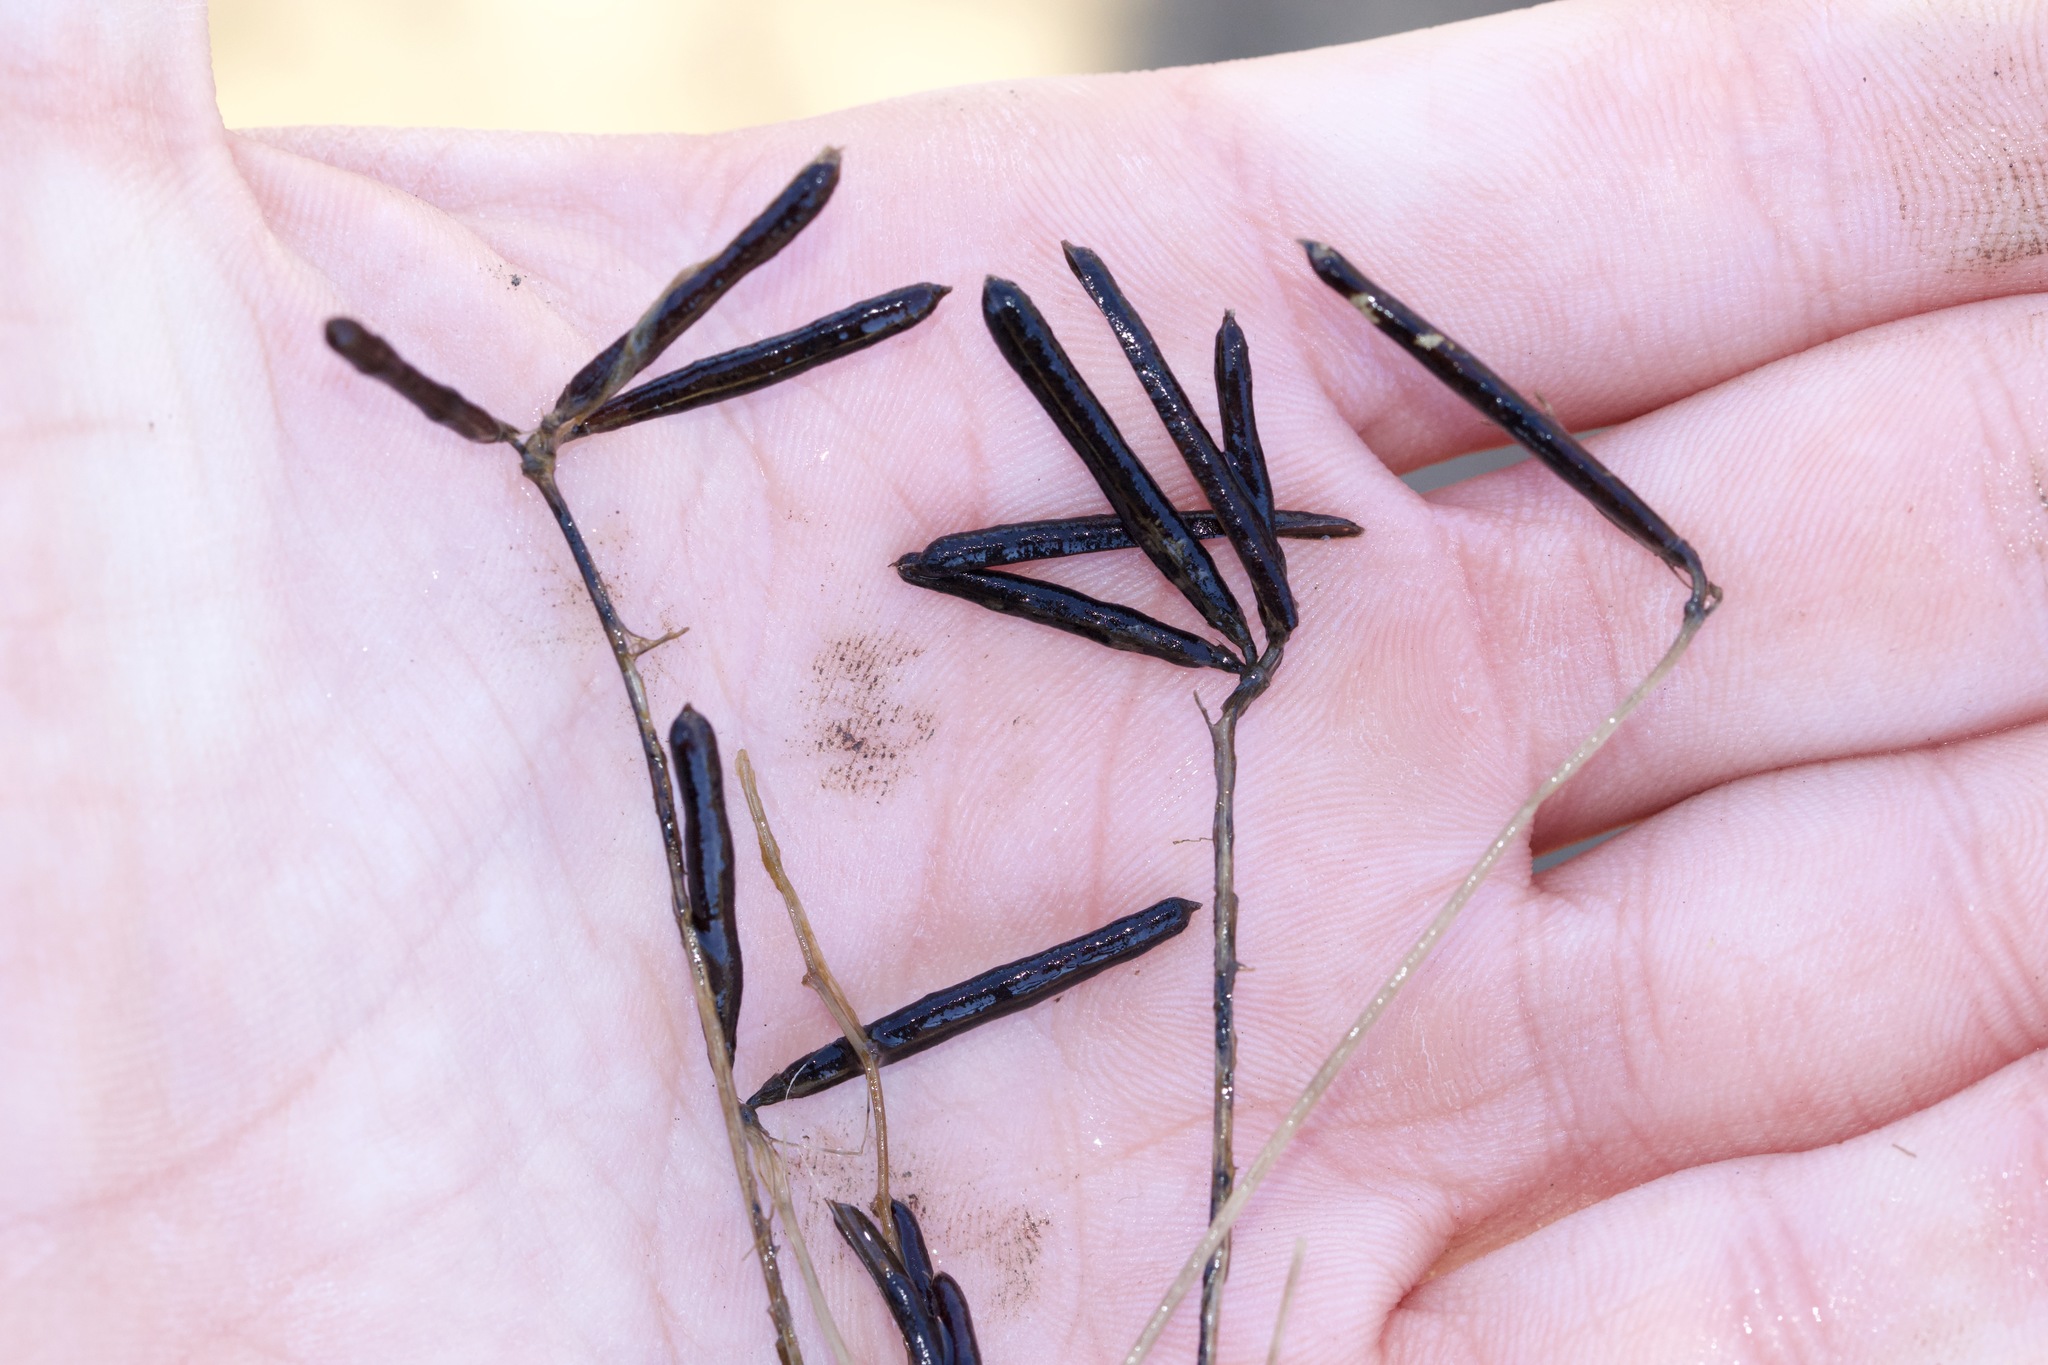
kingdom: Plantae
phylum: Tracheophyta
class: Magnoliopsida
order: Fabales
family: Fabaceae
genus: Lotus
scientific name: Lotus corniculatus
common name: Common bird's-foot-trefoil
